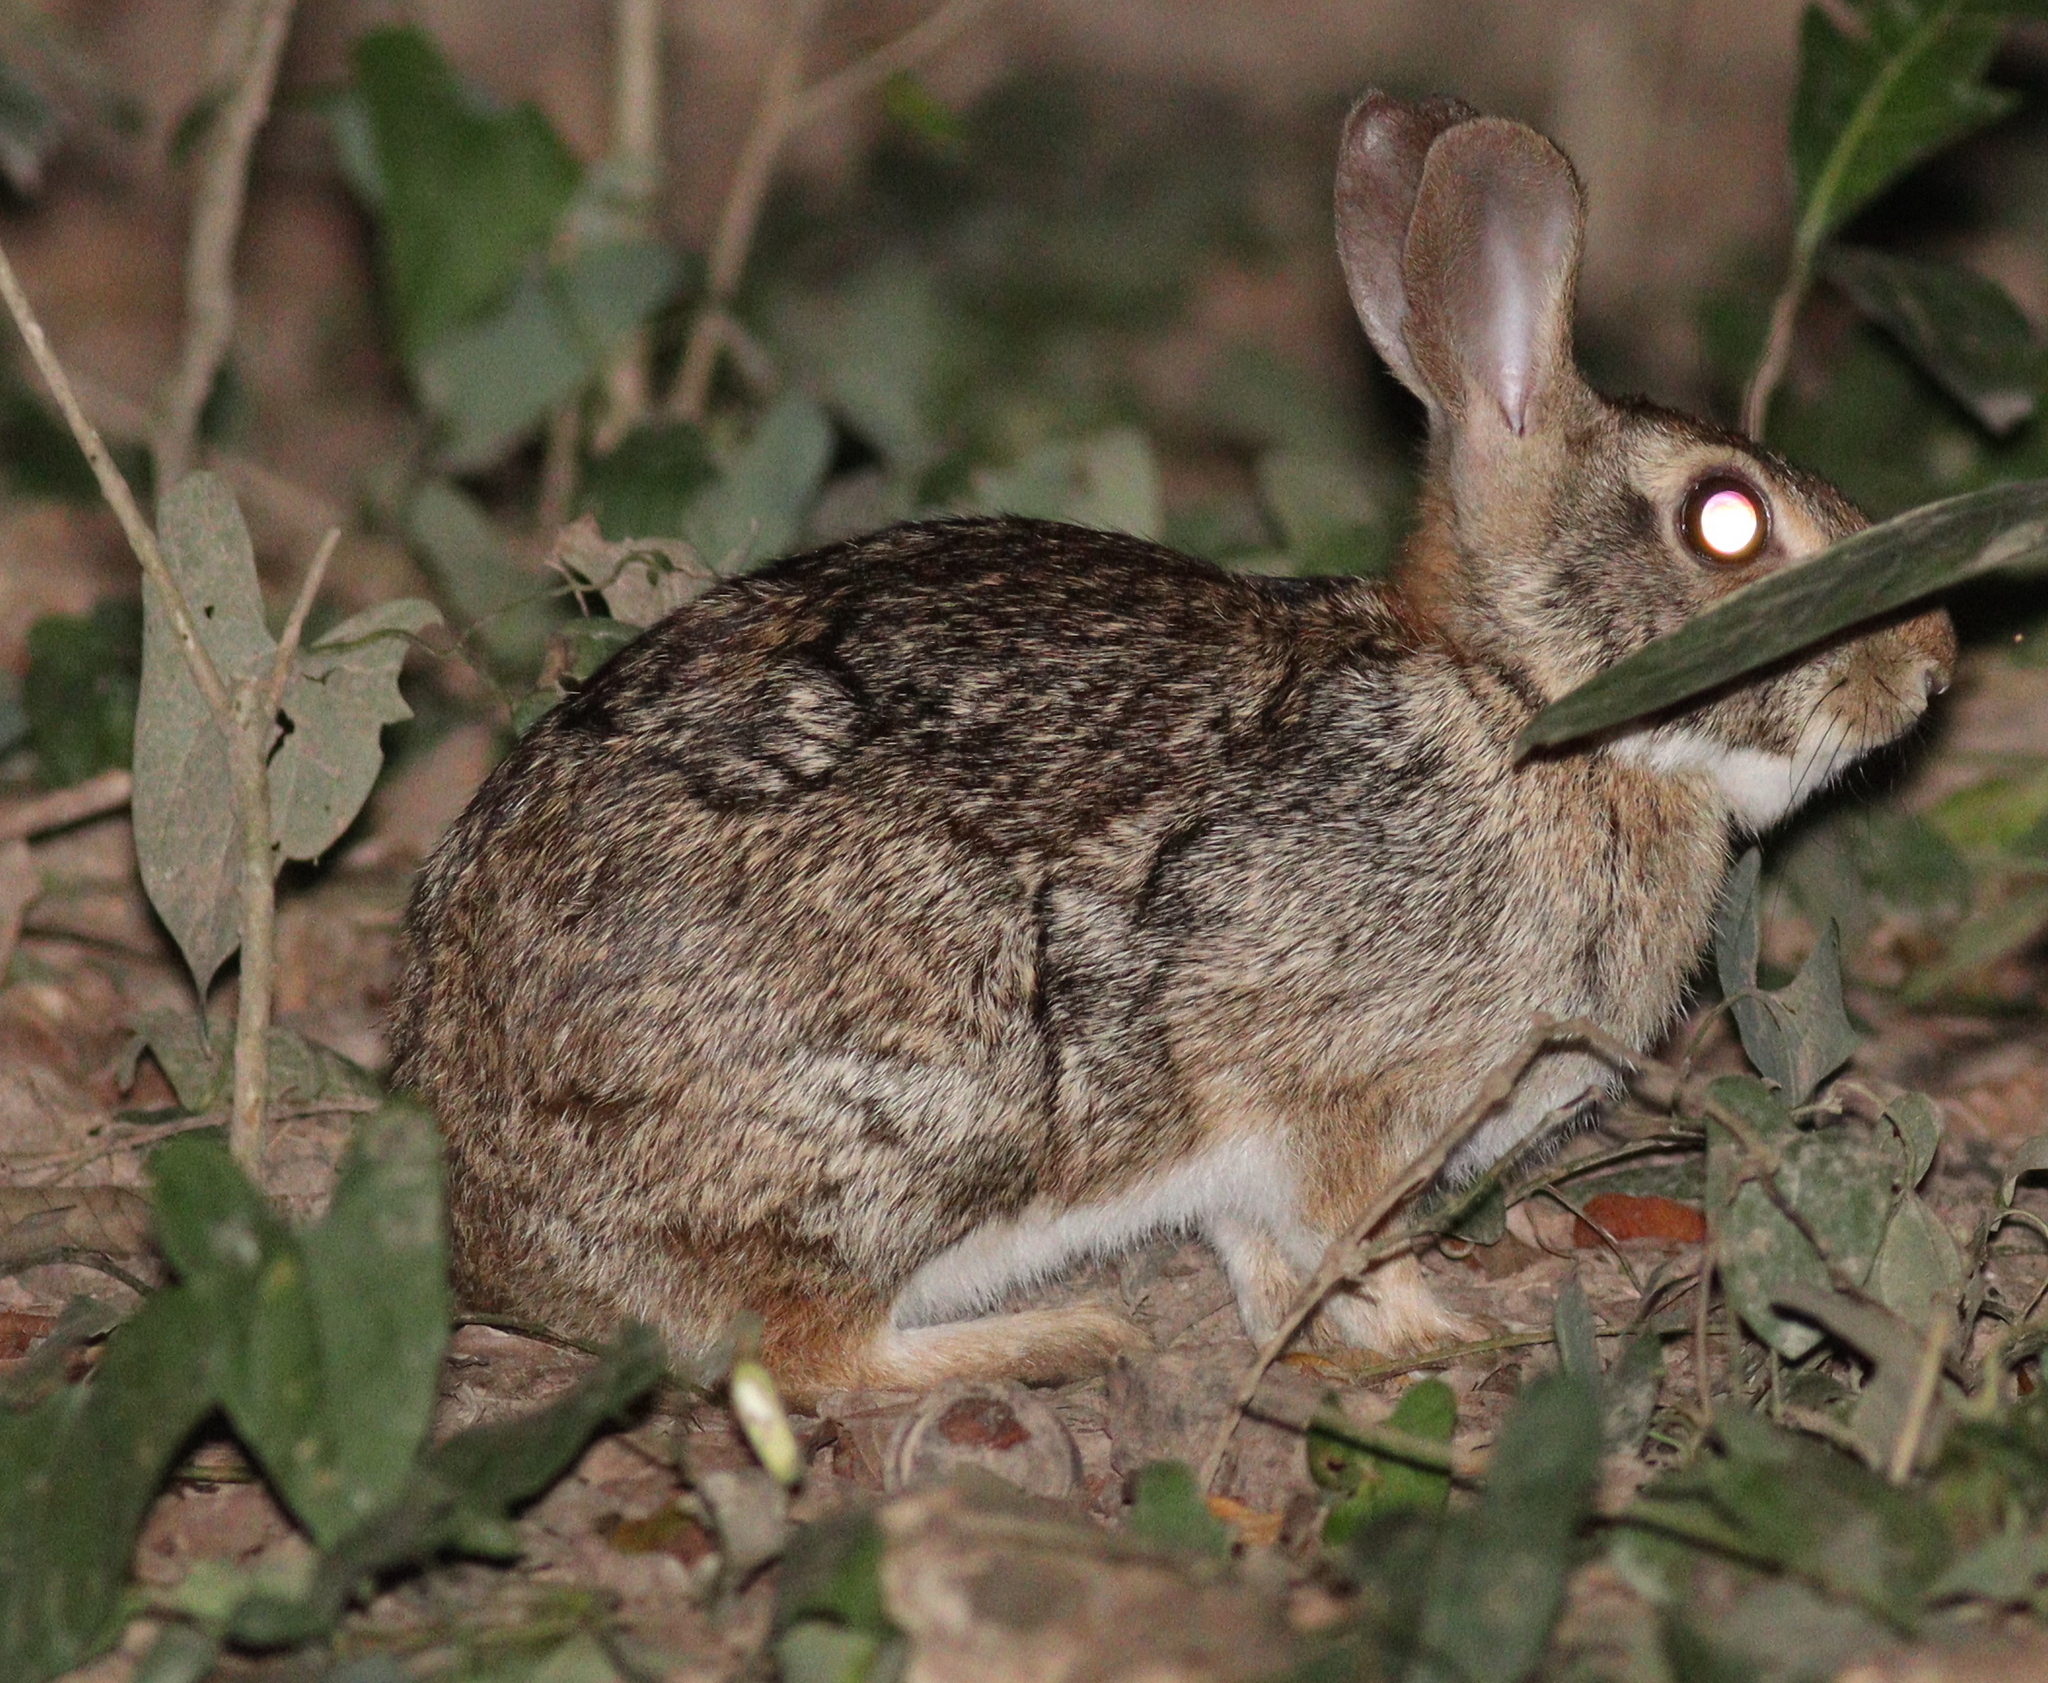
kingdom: Animalia
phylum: Chordata
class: Mammalia
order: Lagomorpha
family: Leporidae
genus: Sylvilagus
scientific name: Sylvilagus brasiliensis
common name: Tapeti
